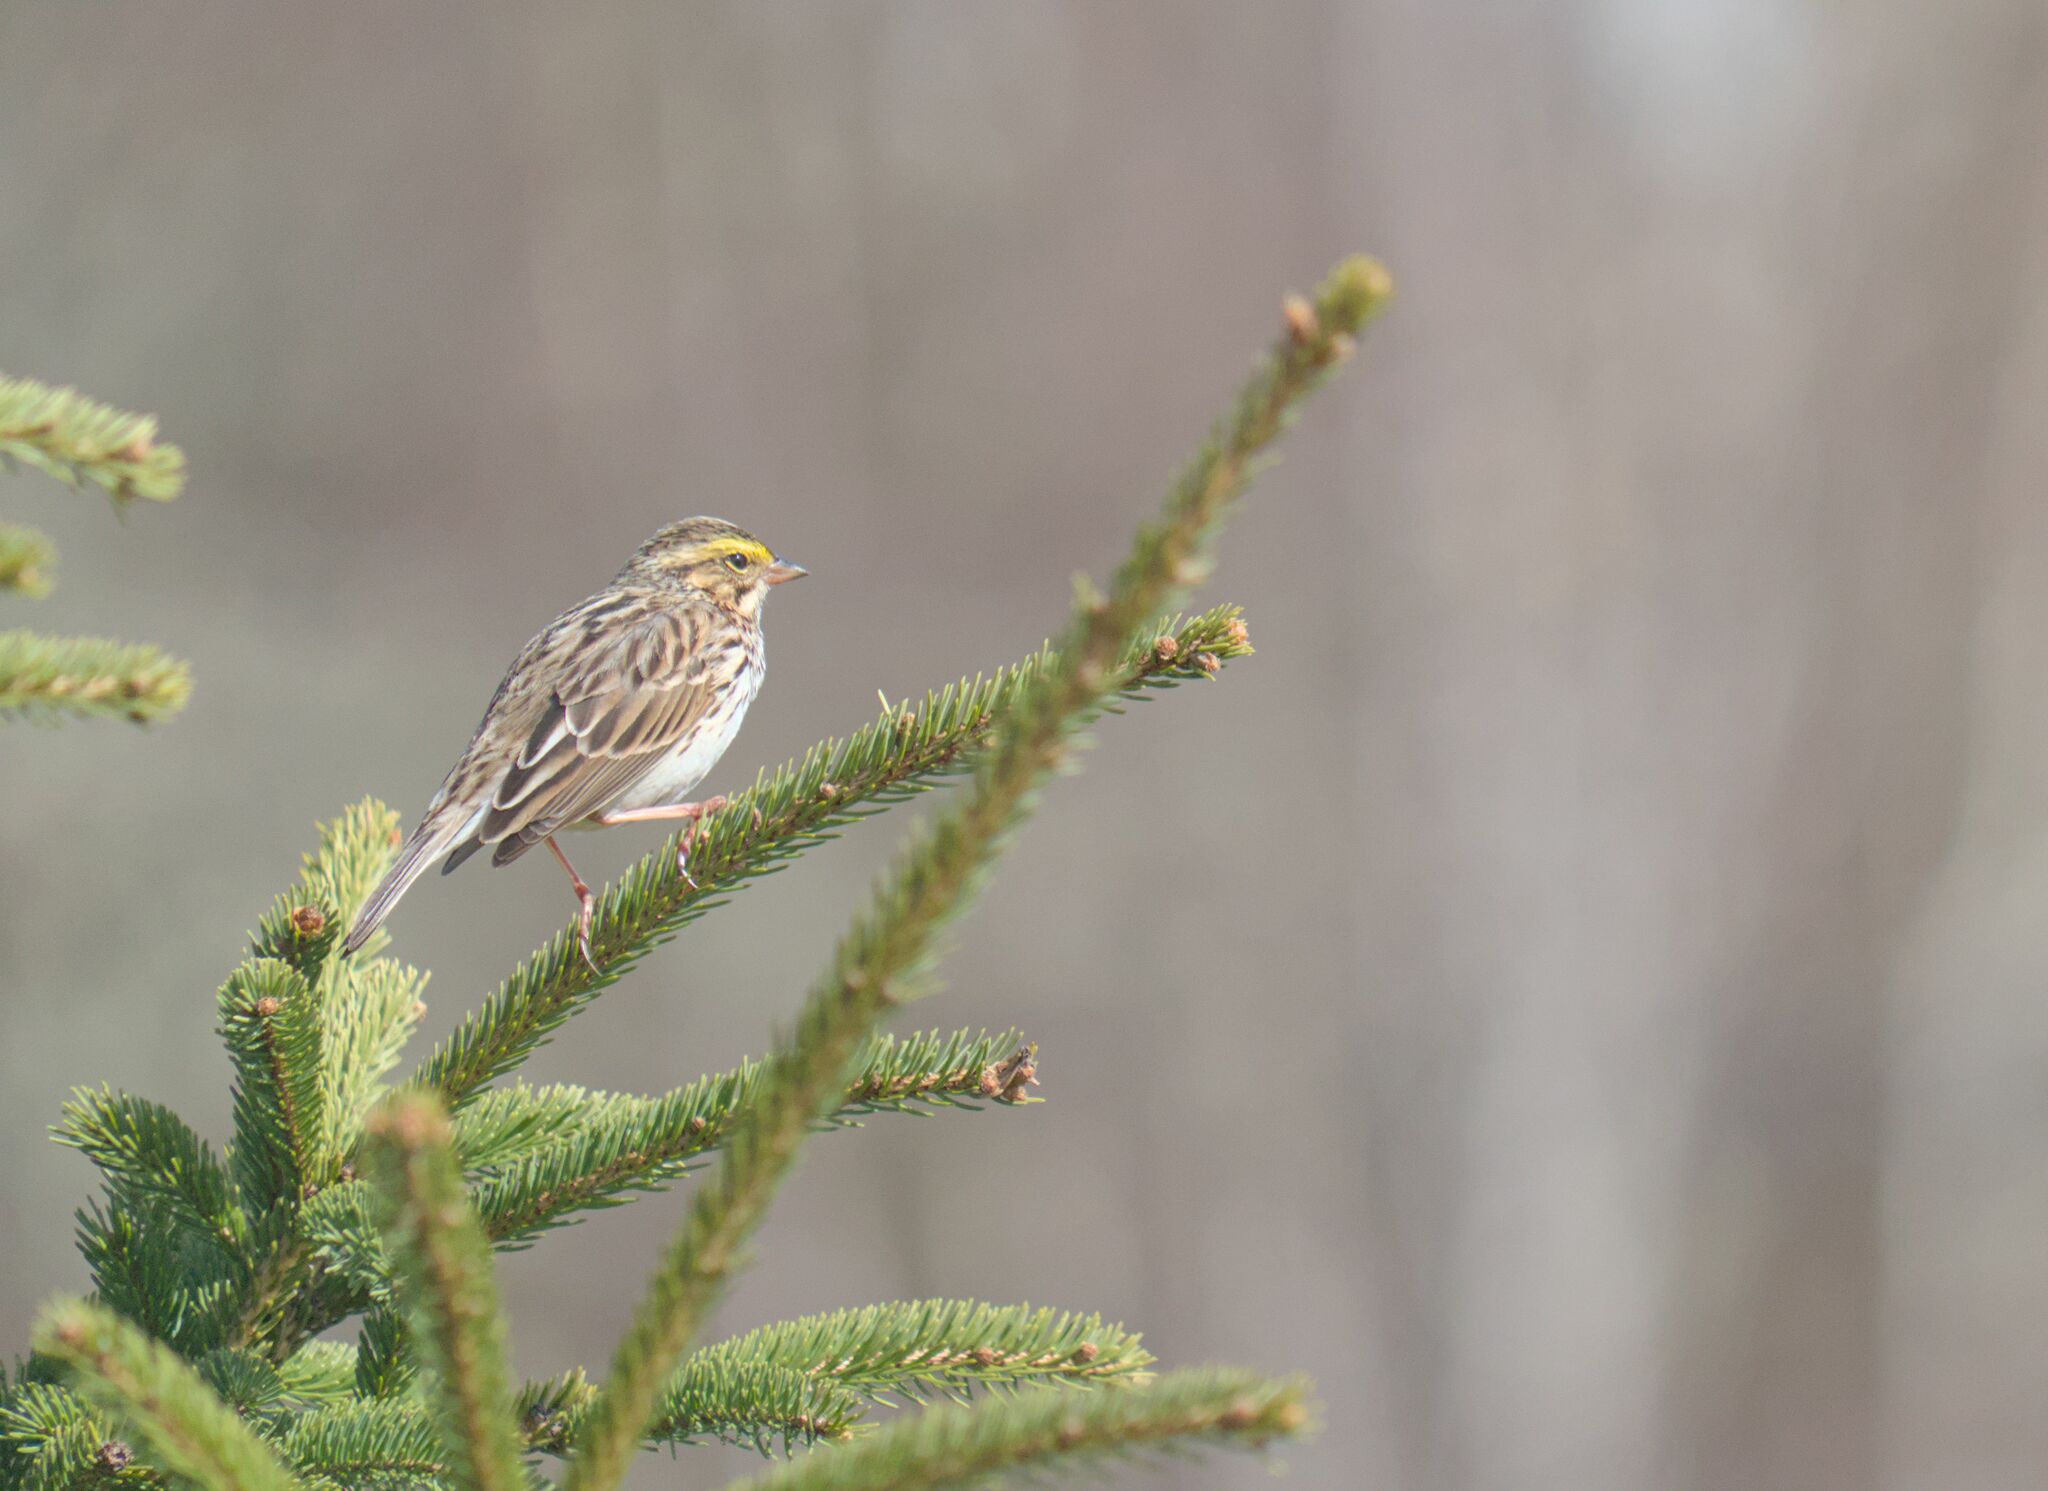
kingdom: Animalia
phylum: Chordata
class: Aves
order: Passeriformes
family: Passerellidae
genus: Passerculus
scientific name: Passerculus sandwichensis
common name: Savannah sparrow
